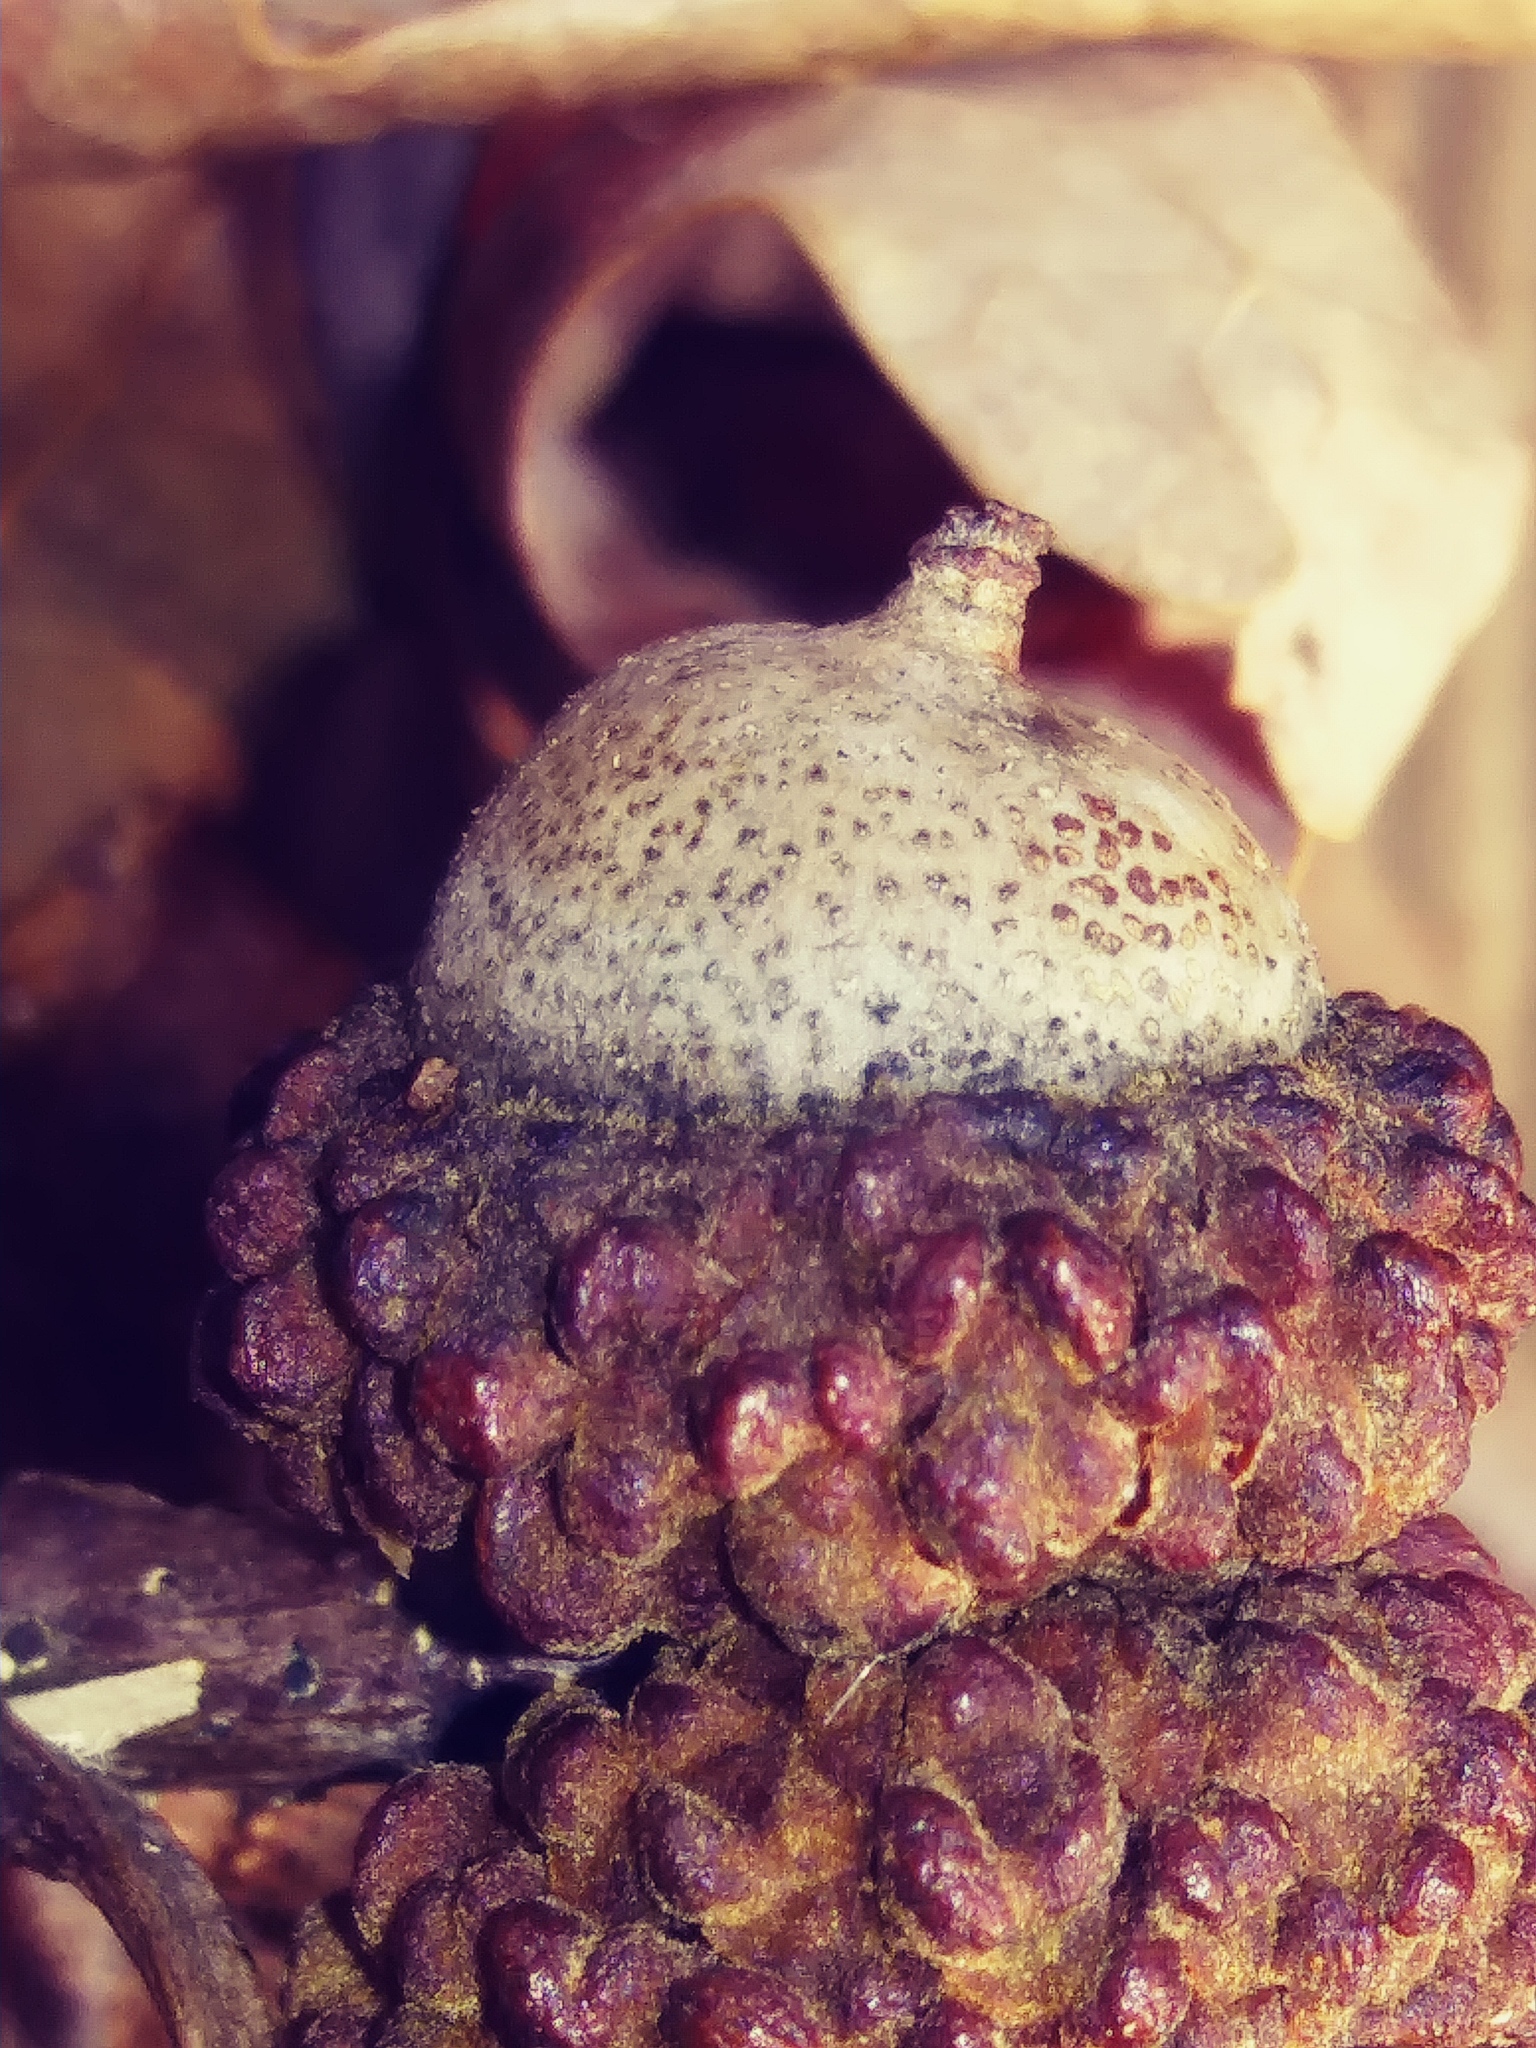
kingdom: Plantae
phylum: Tracheophyta
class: Magnoliopsida
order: Fagales
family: Fagaceae
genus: Quercus
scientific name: Quercus alba
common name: White oak
